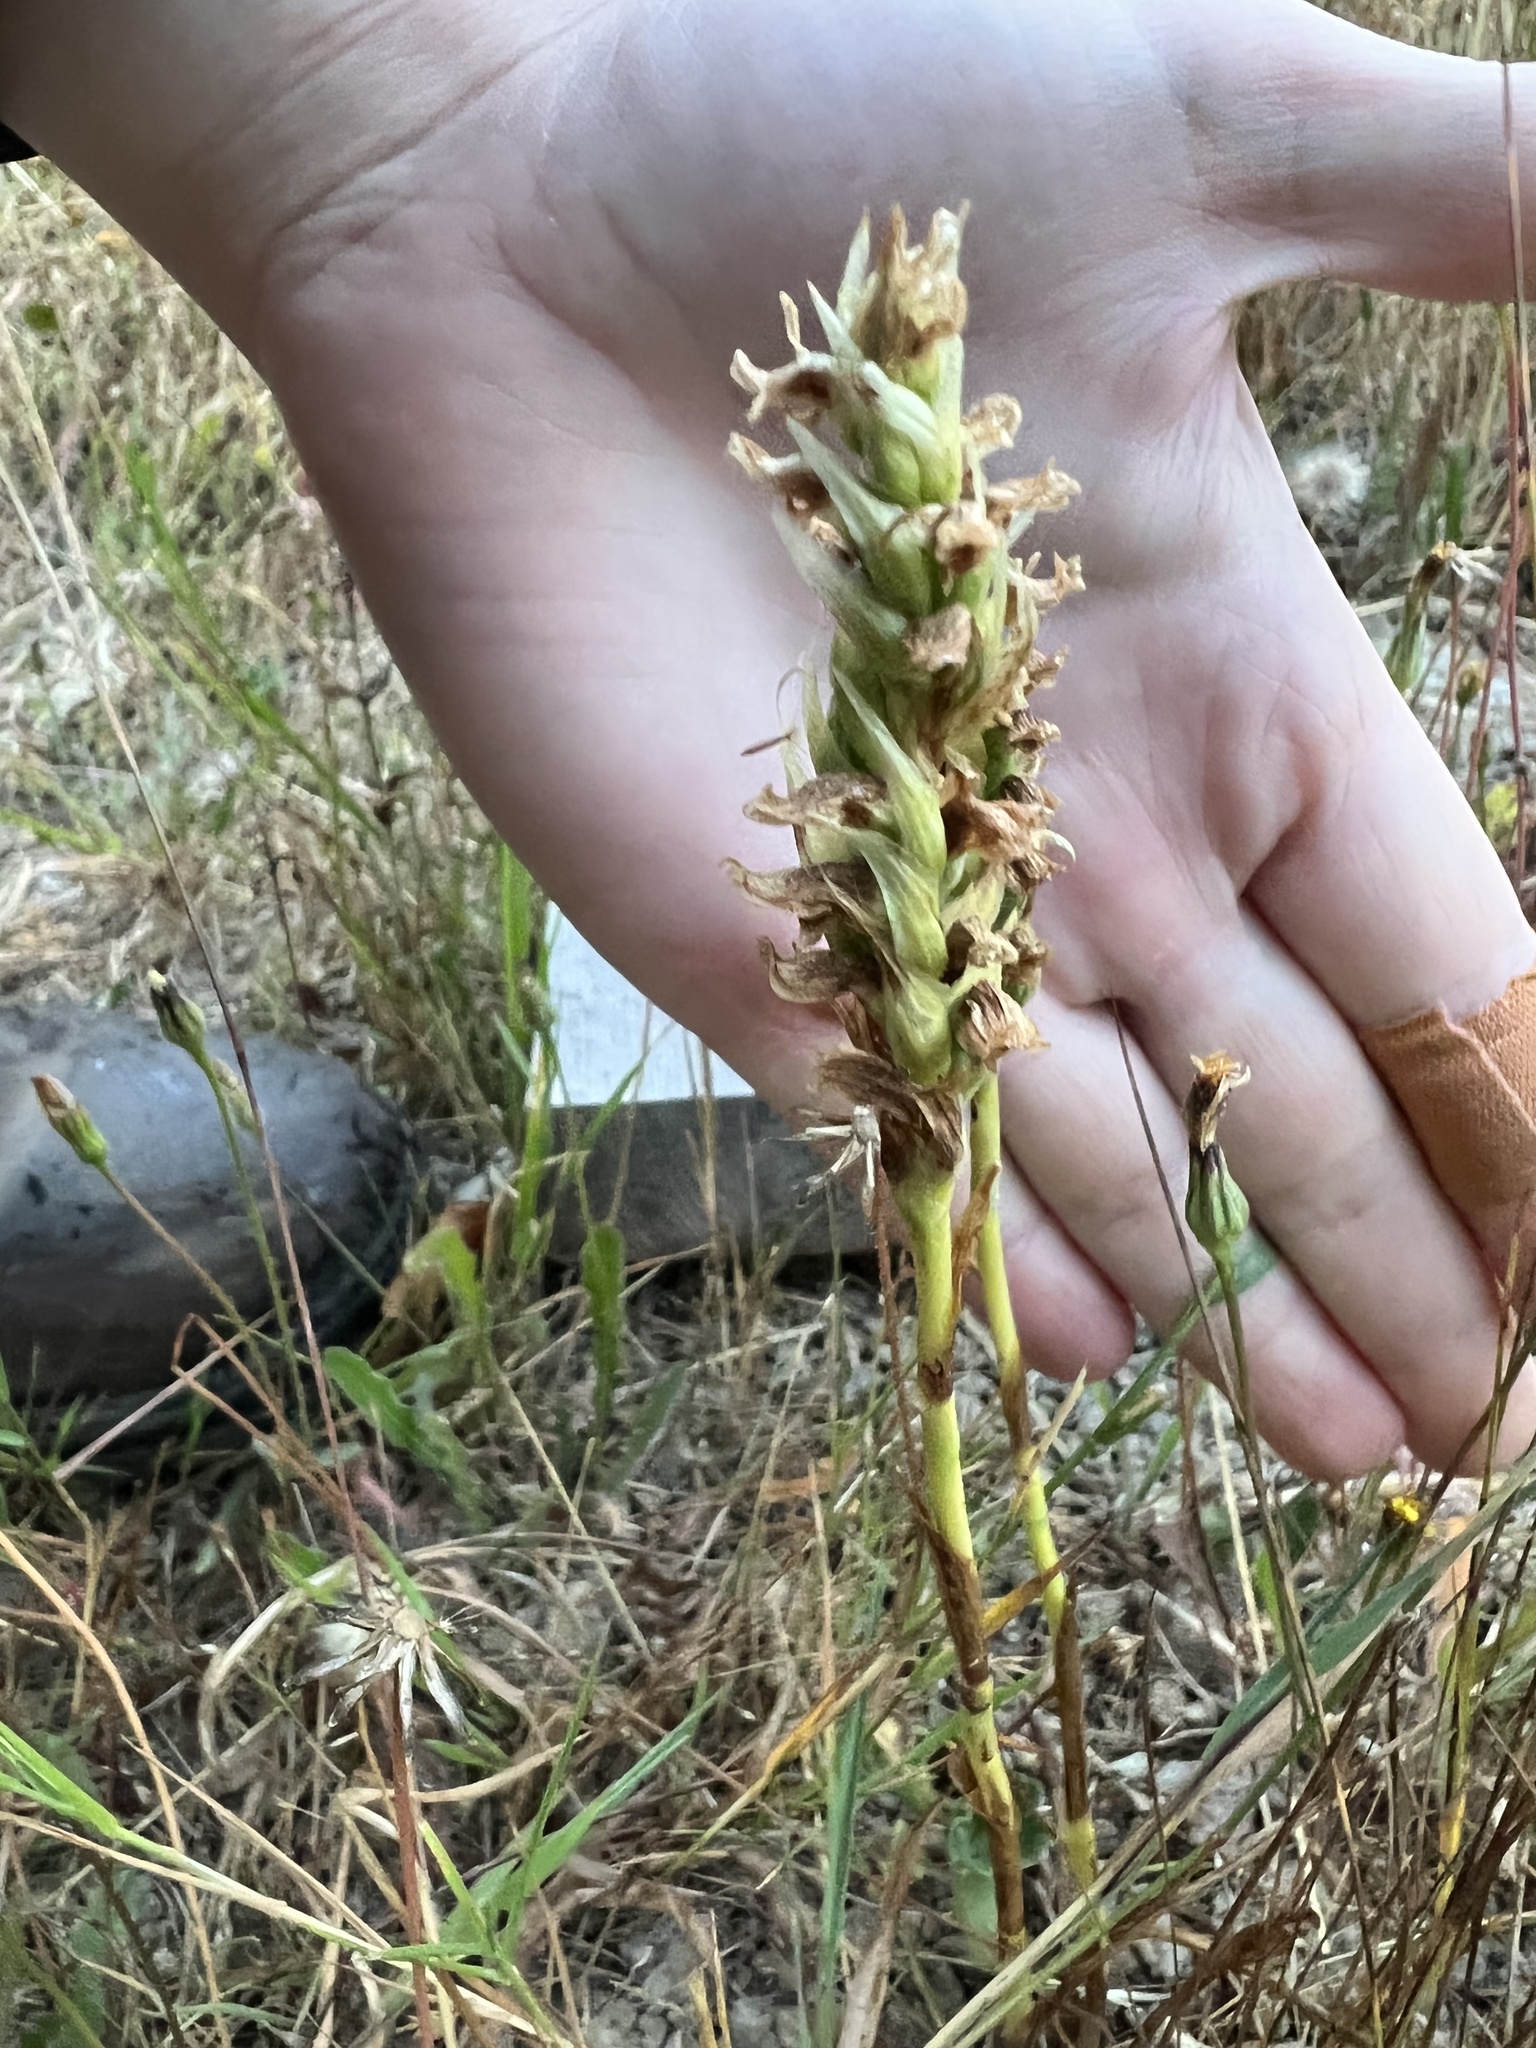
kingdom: Plantae
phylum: Tracheophyta
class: Liliopsida
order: Asparagales
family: Orchidaceae
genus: Spiranthes
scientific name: Spiranthes romanzoffiana
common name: Irish lady's-tresses
